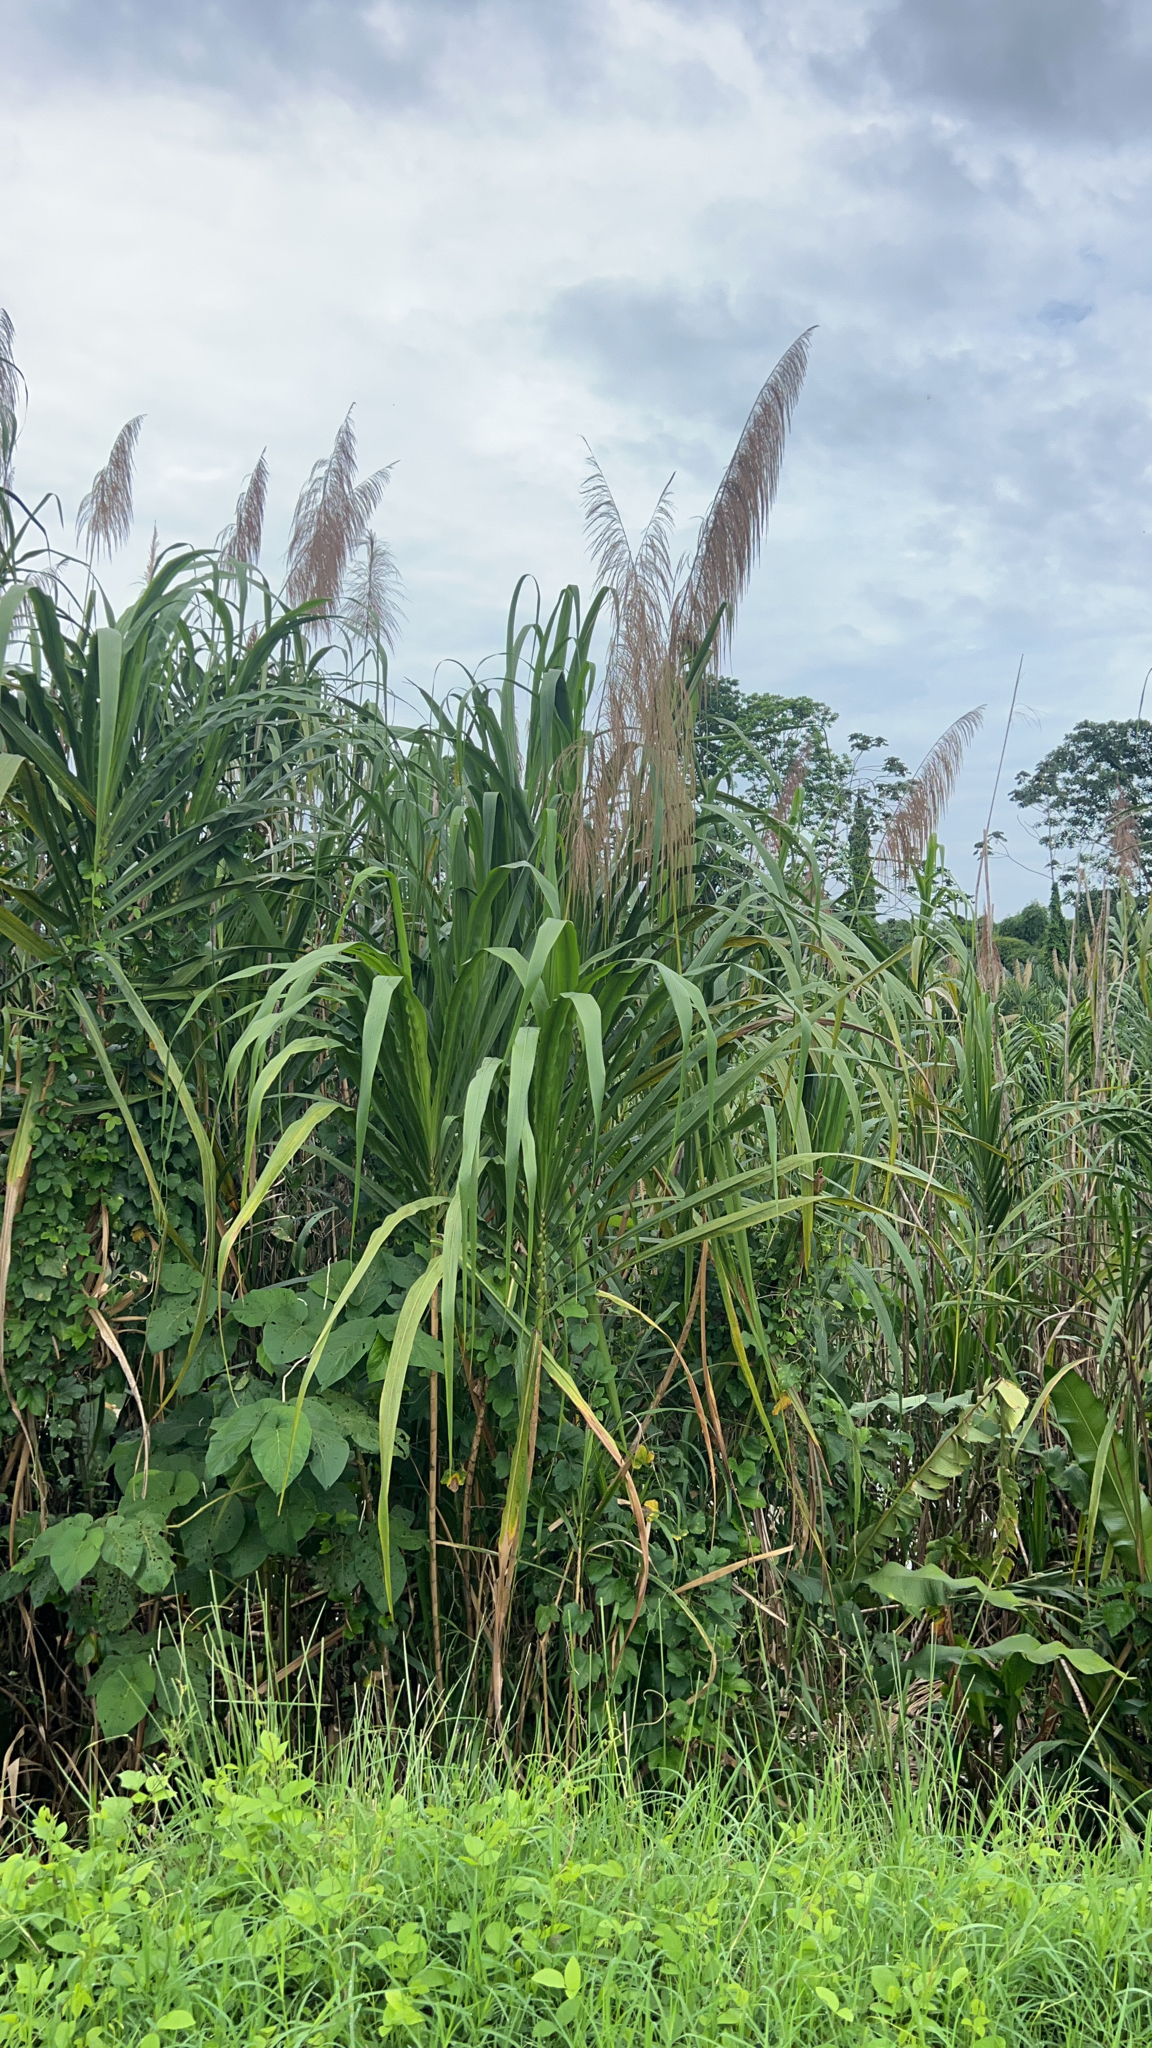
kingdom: Plantae
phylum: Tracheophyta
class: Liliopsida
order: Poales
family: Poaceae
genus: Saccharum
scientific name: Saccharum officinarum
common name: Sugarcane
